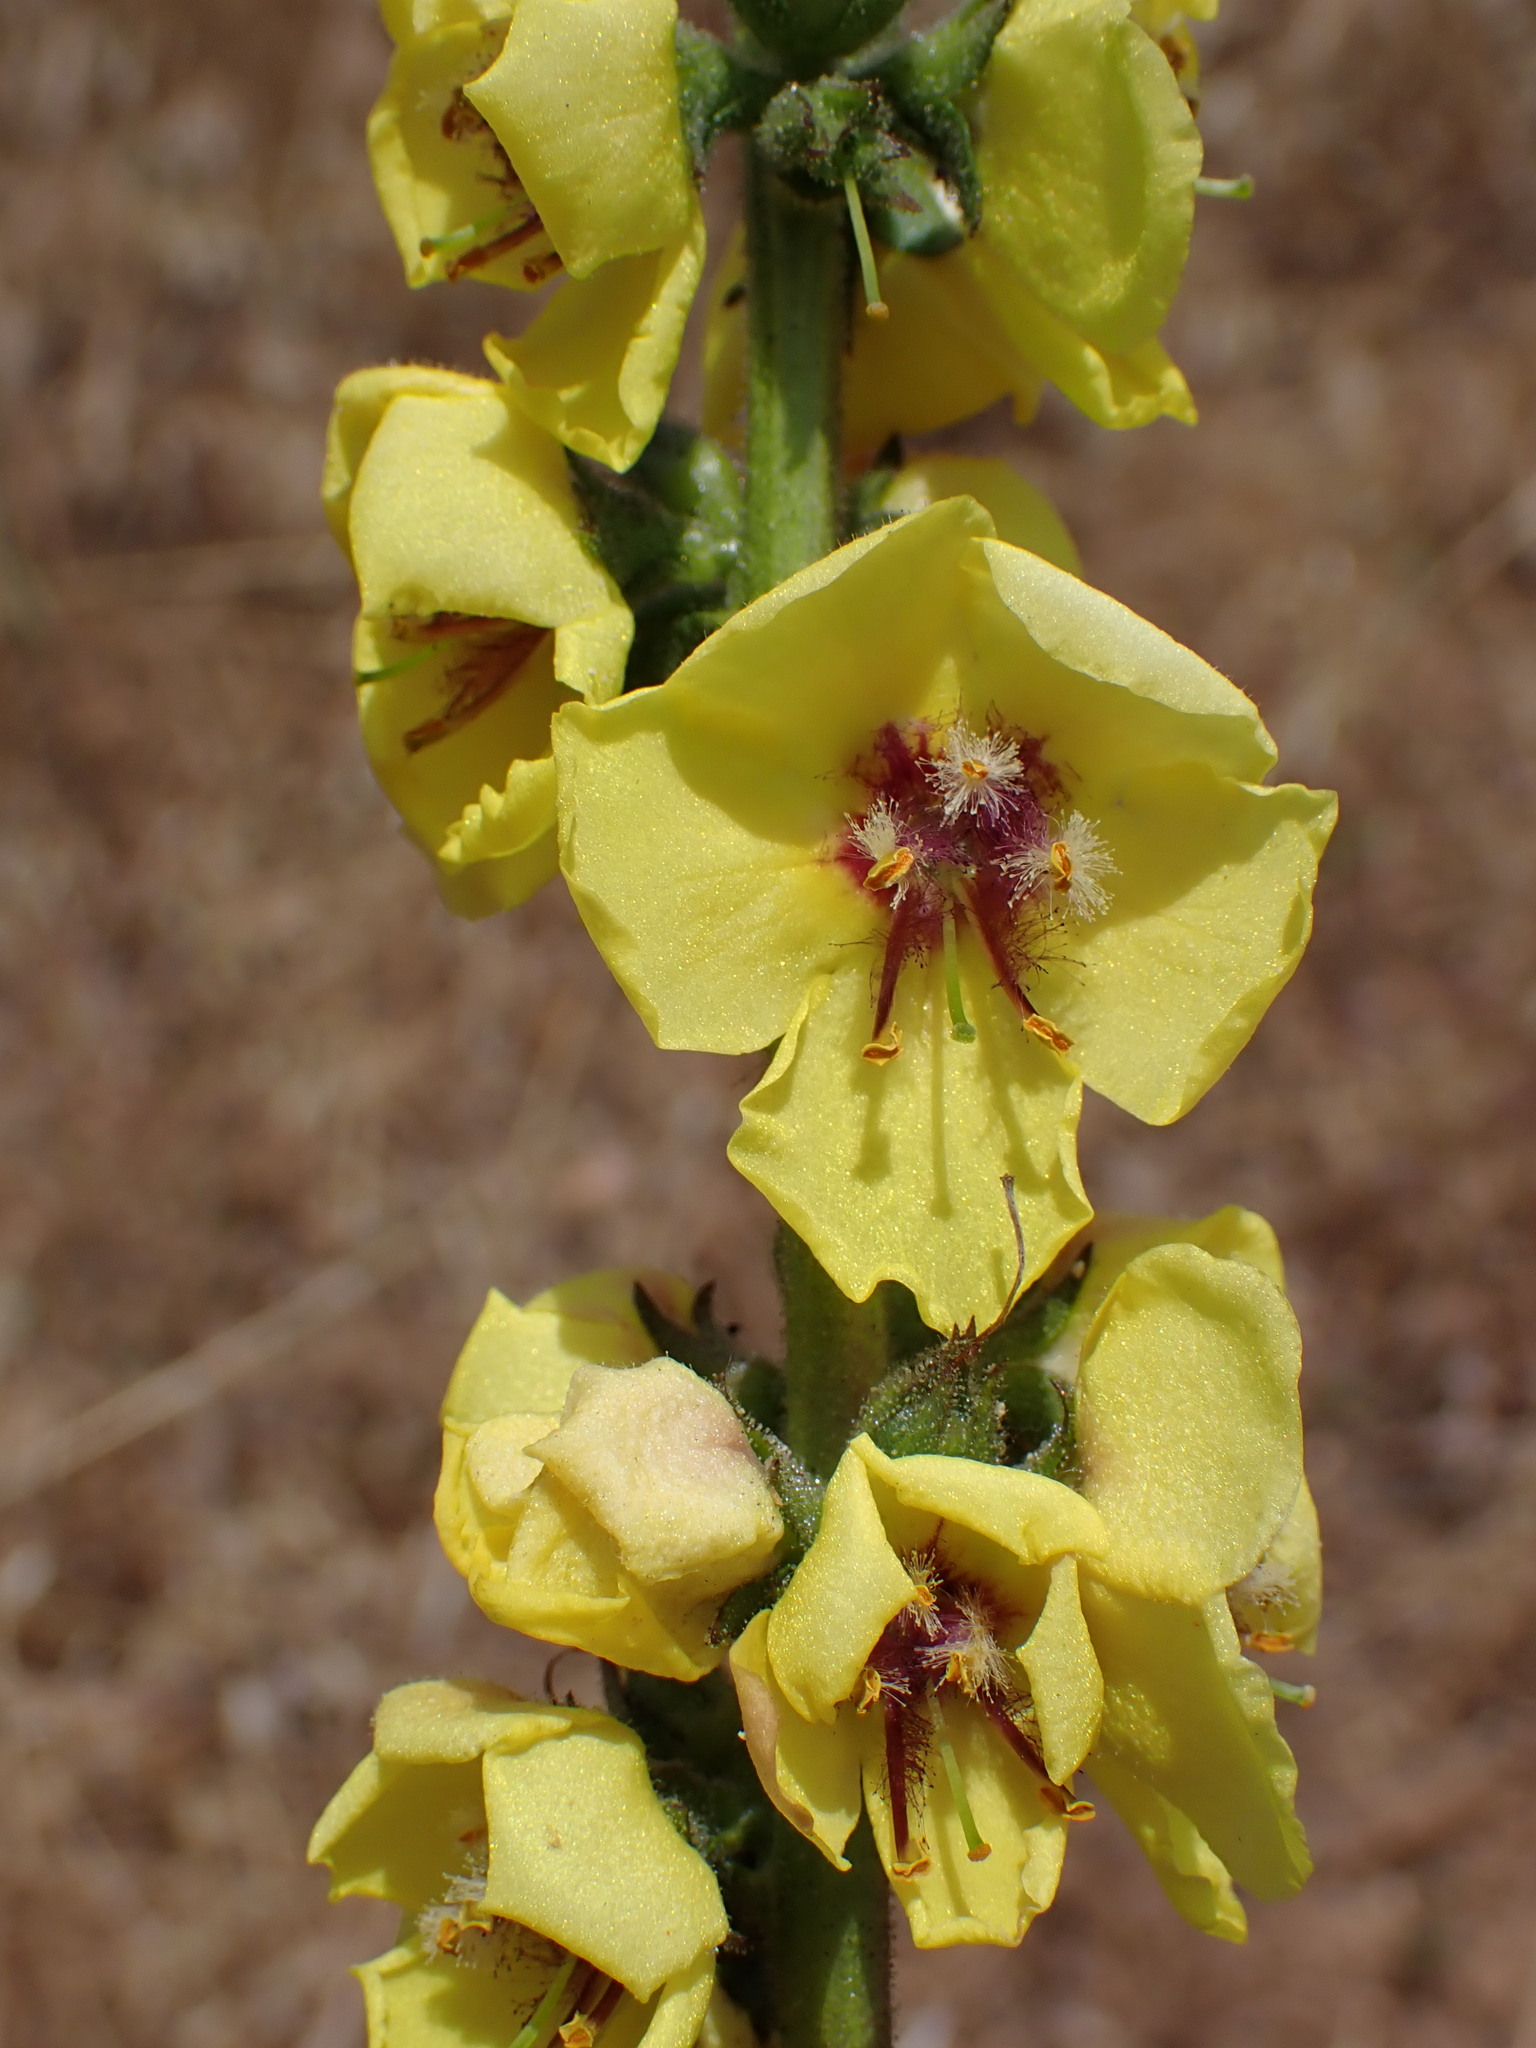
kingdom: Plantae
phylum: Tracheophyta
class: Magnoliopsida
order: Lamiales
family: Scrophulariaceae
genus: Verbascum
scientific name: Verbascum virgatum
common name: Twiggy mullein
